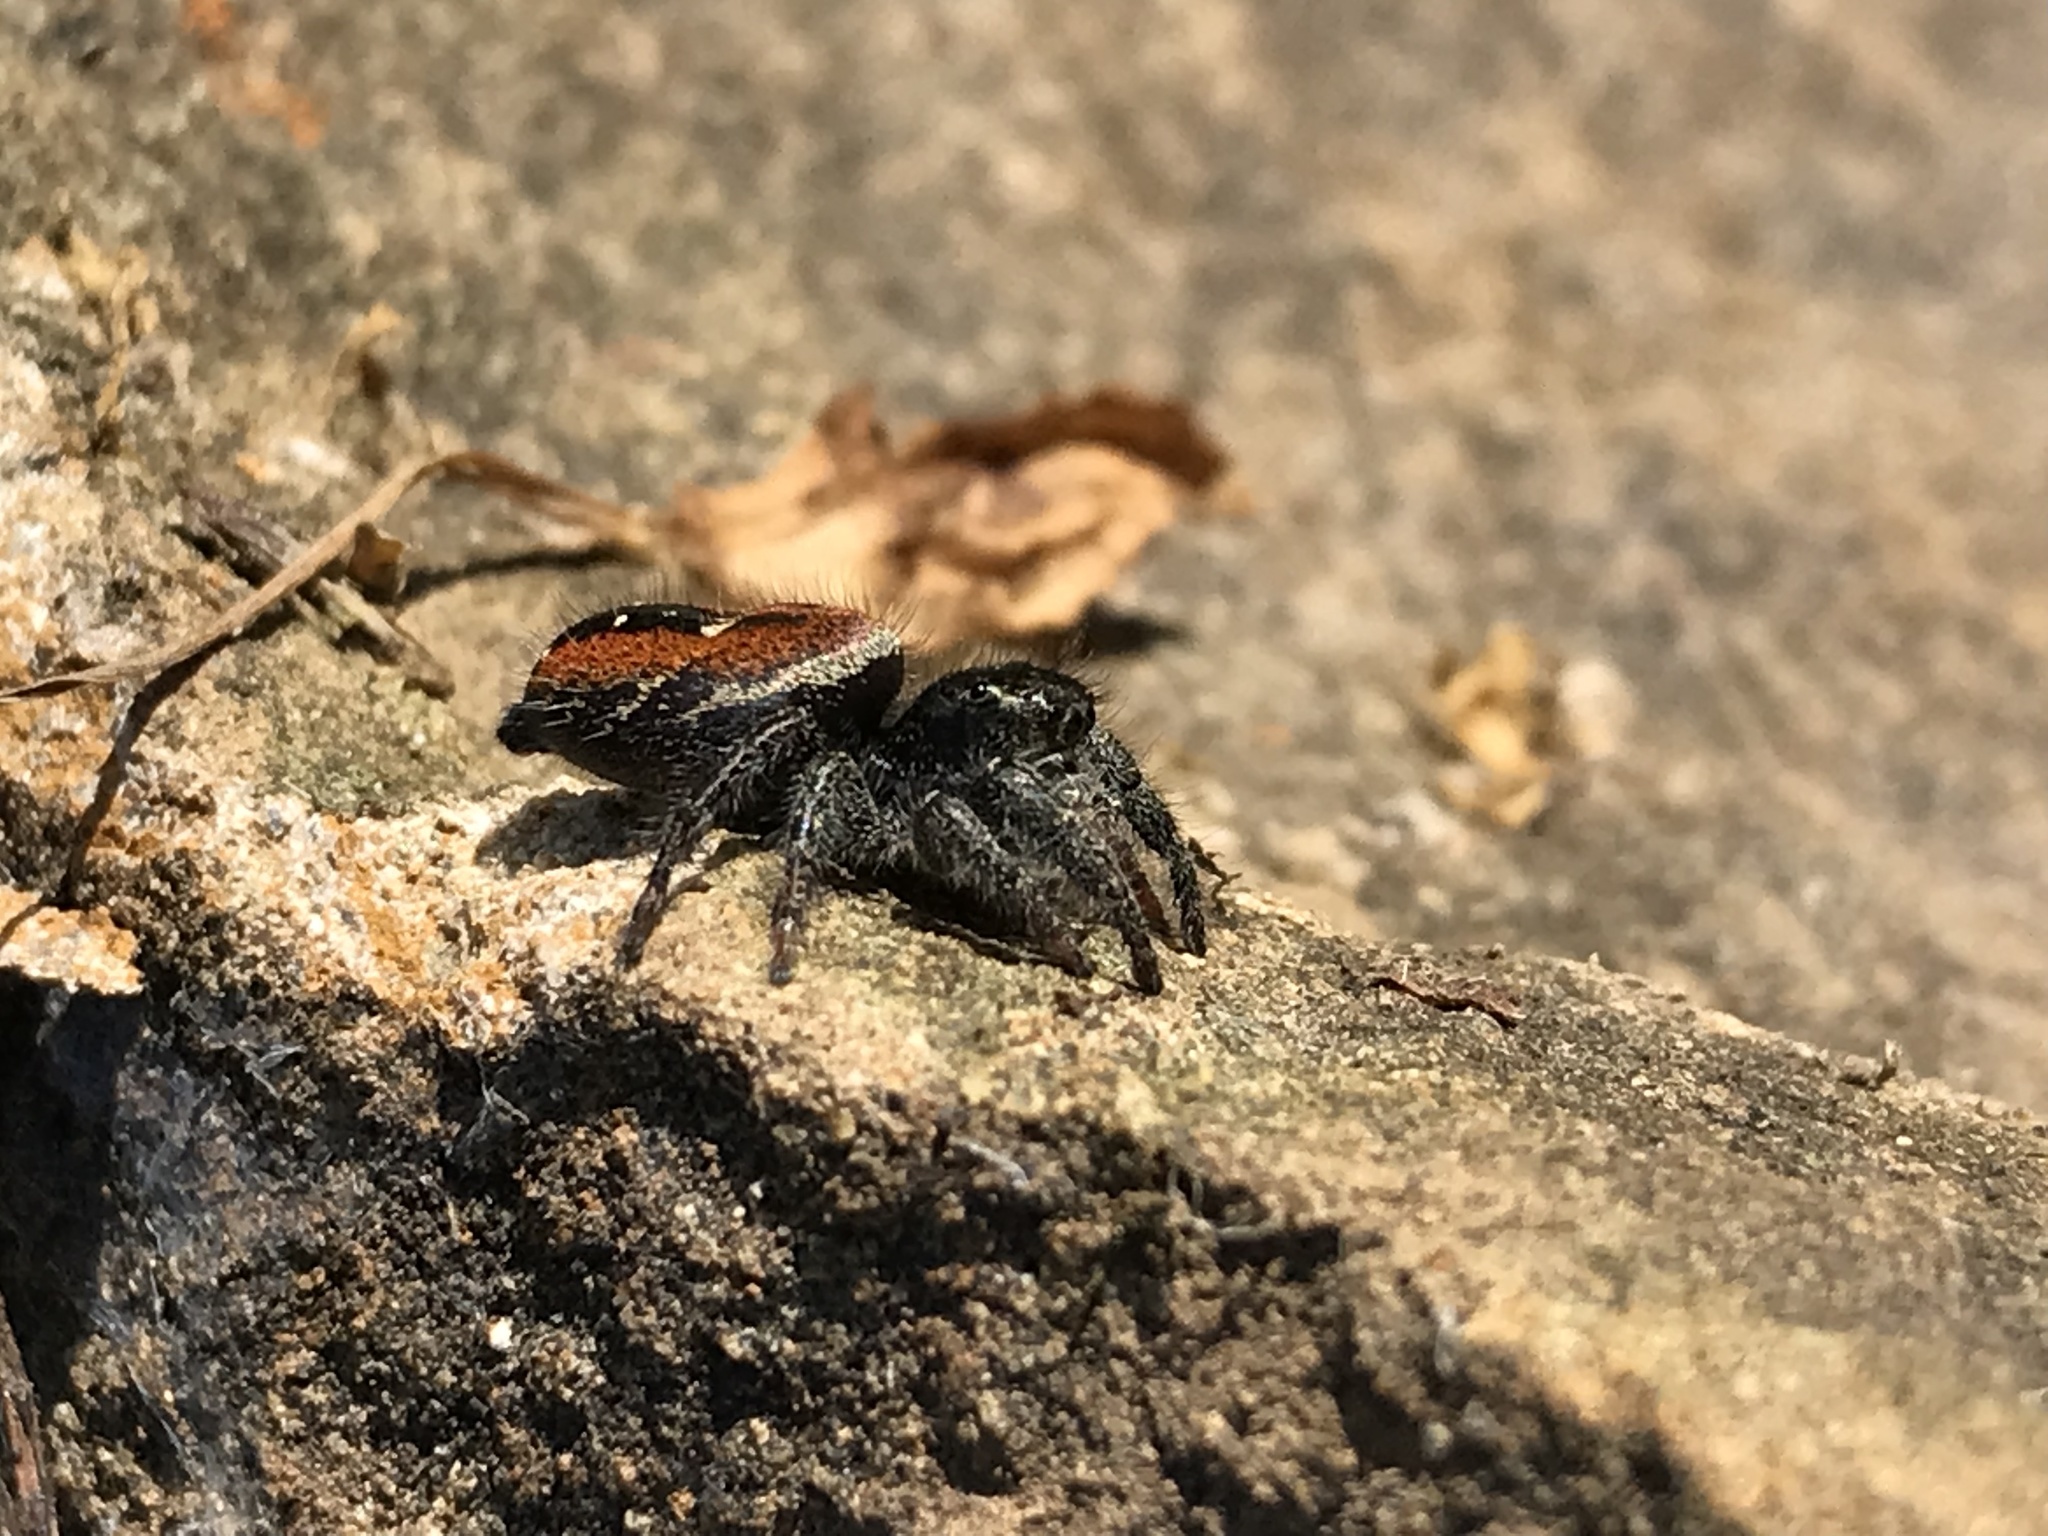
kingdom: Animalia
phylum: Arthropoda
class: Arachnida
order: Araneae
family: Salticidae
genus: Phidippus
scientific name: Phidippus johnsoni
